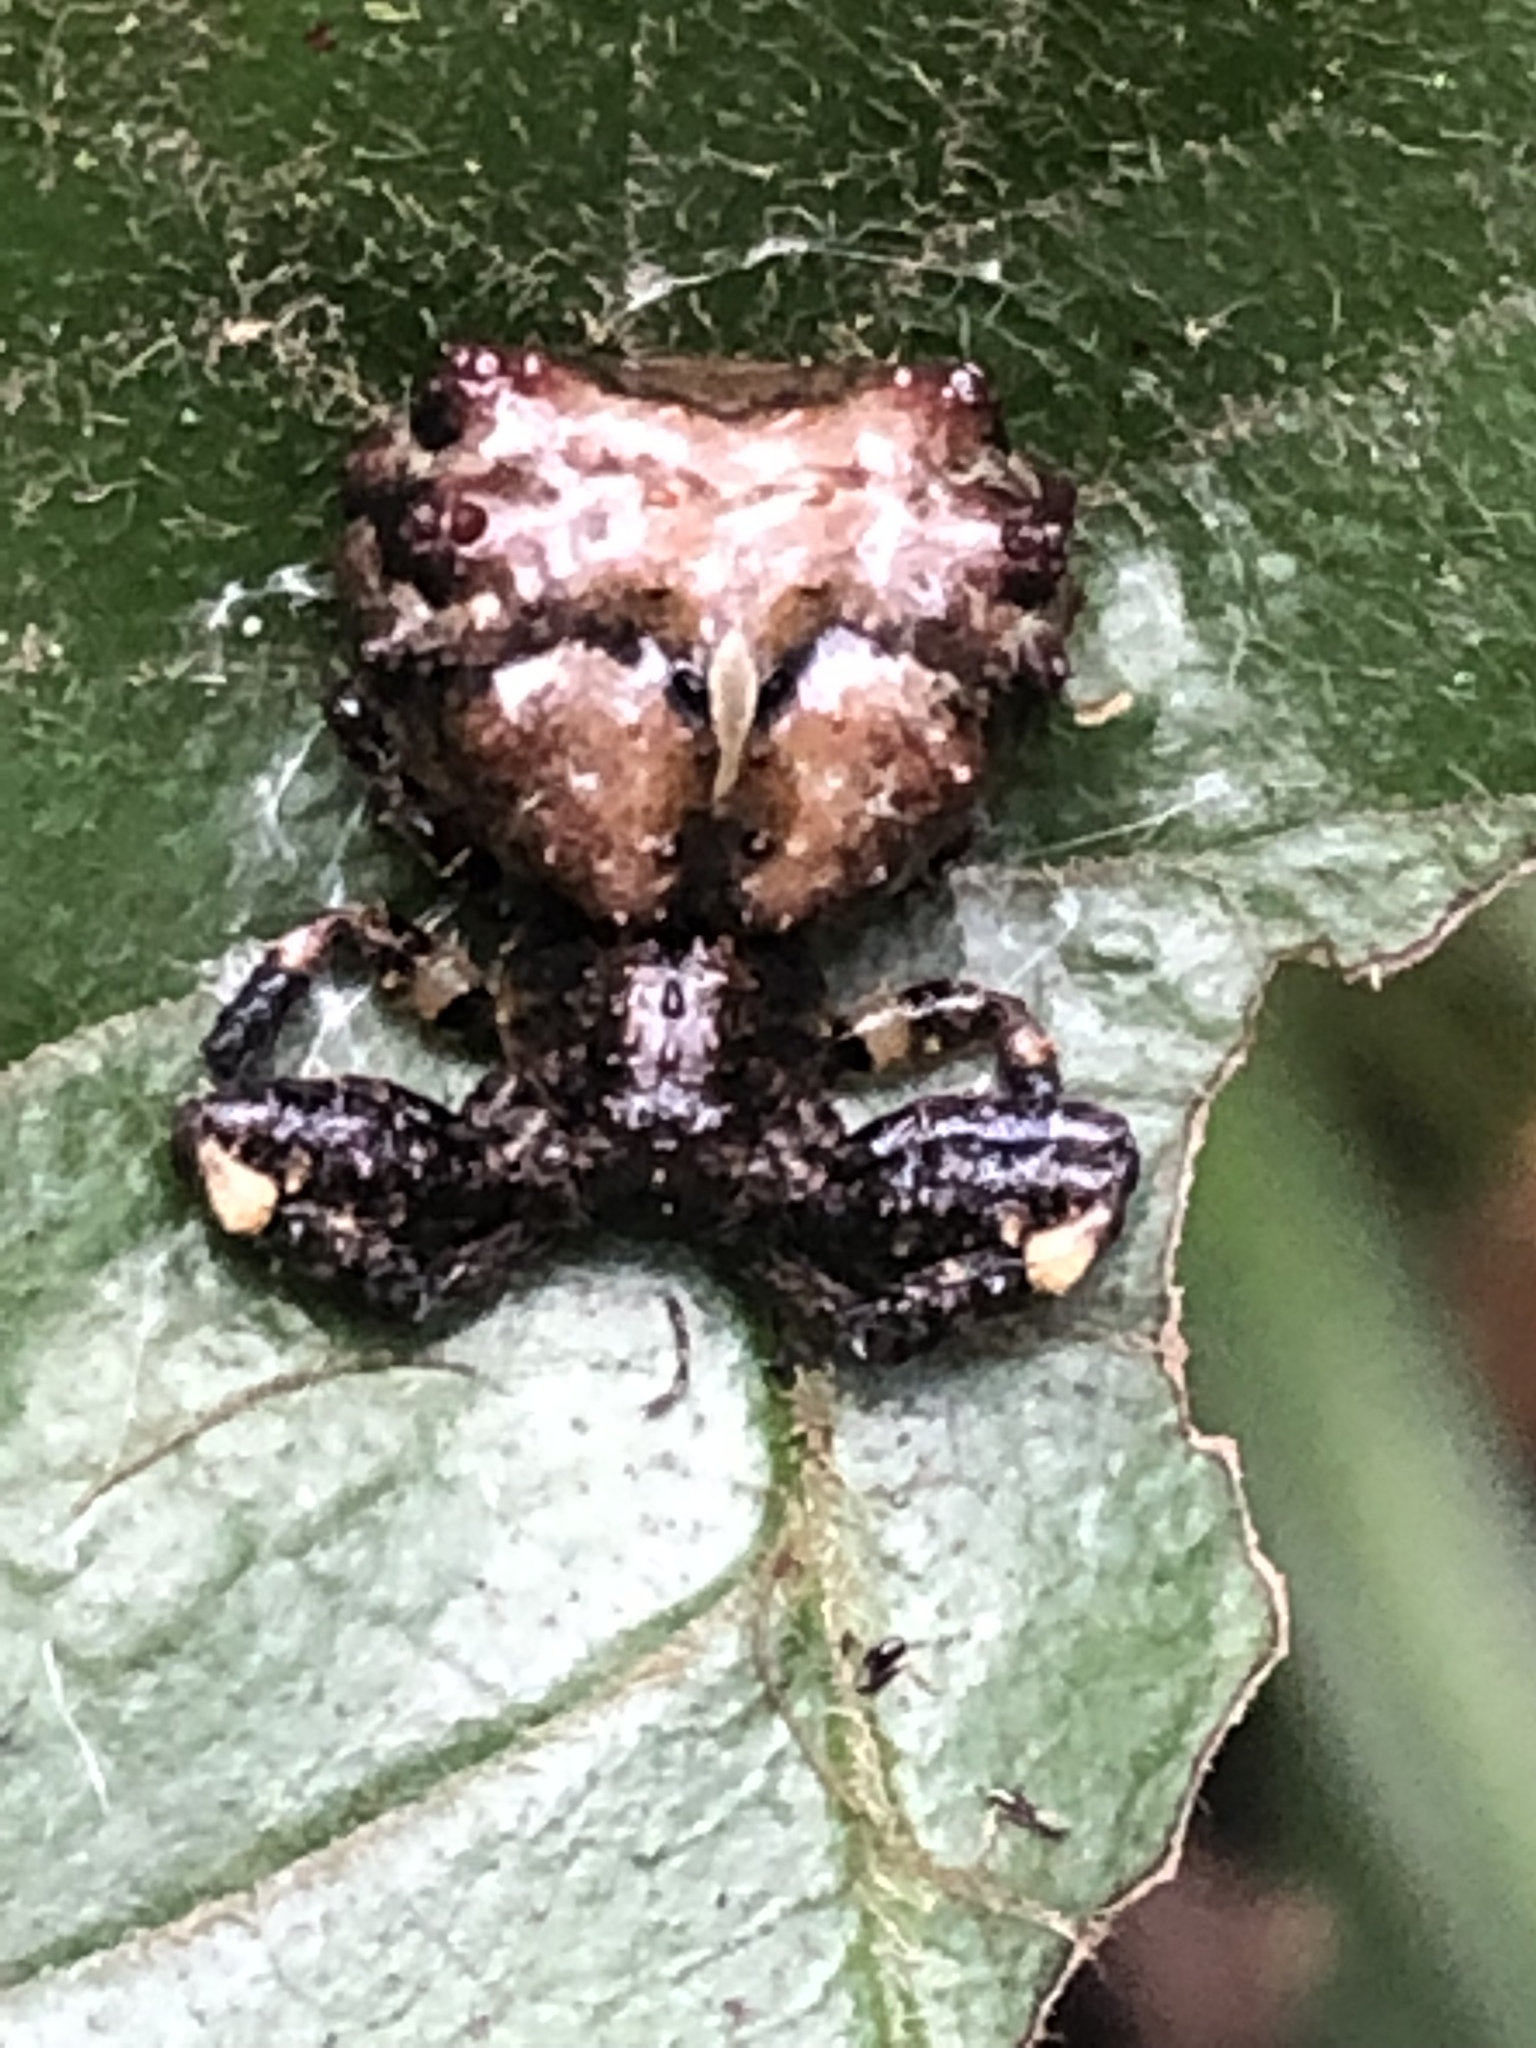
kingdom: Animalia
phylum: Arthropoda
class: Arachnida
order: Araneae
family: Thomisidae
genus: Phrynarachne
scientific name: Phrynarachne rugosa
